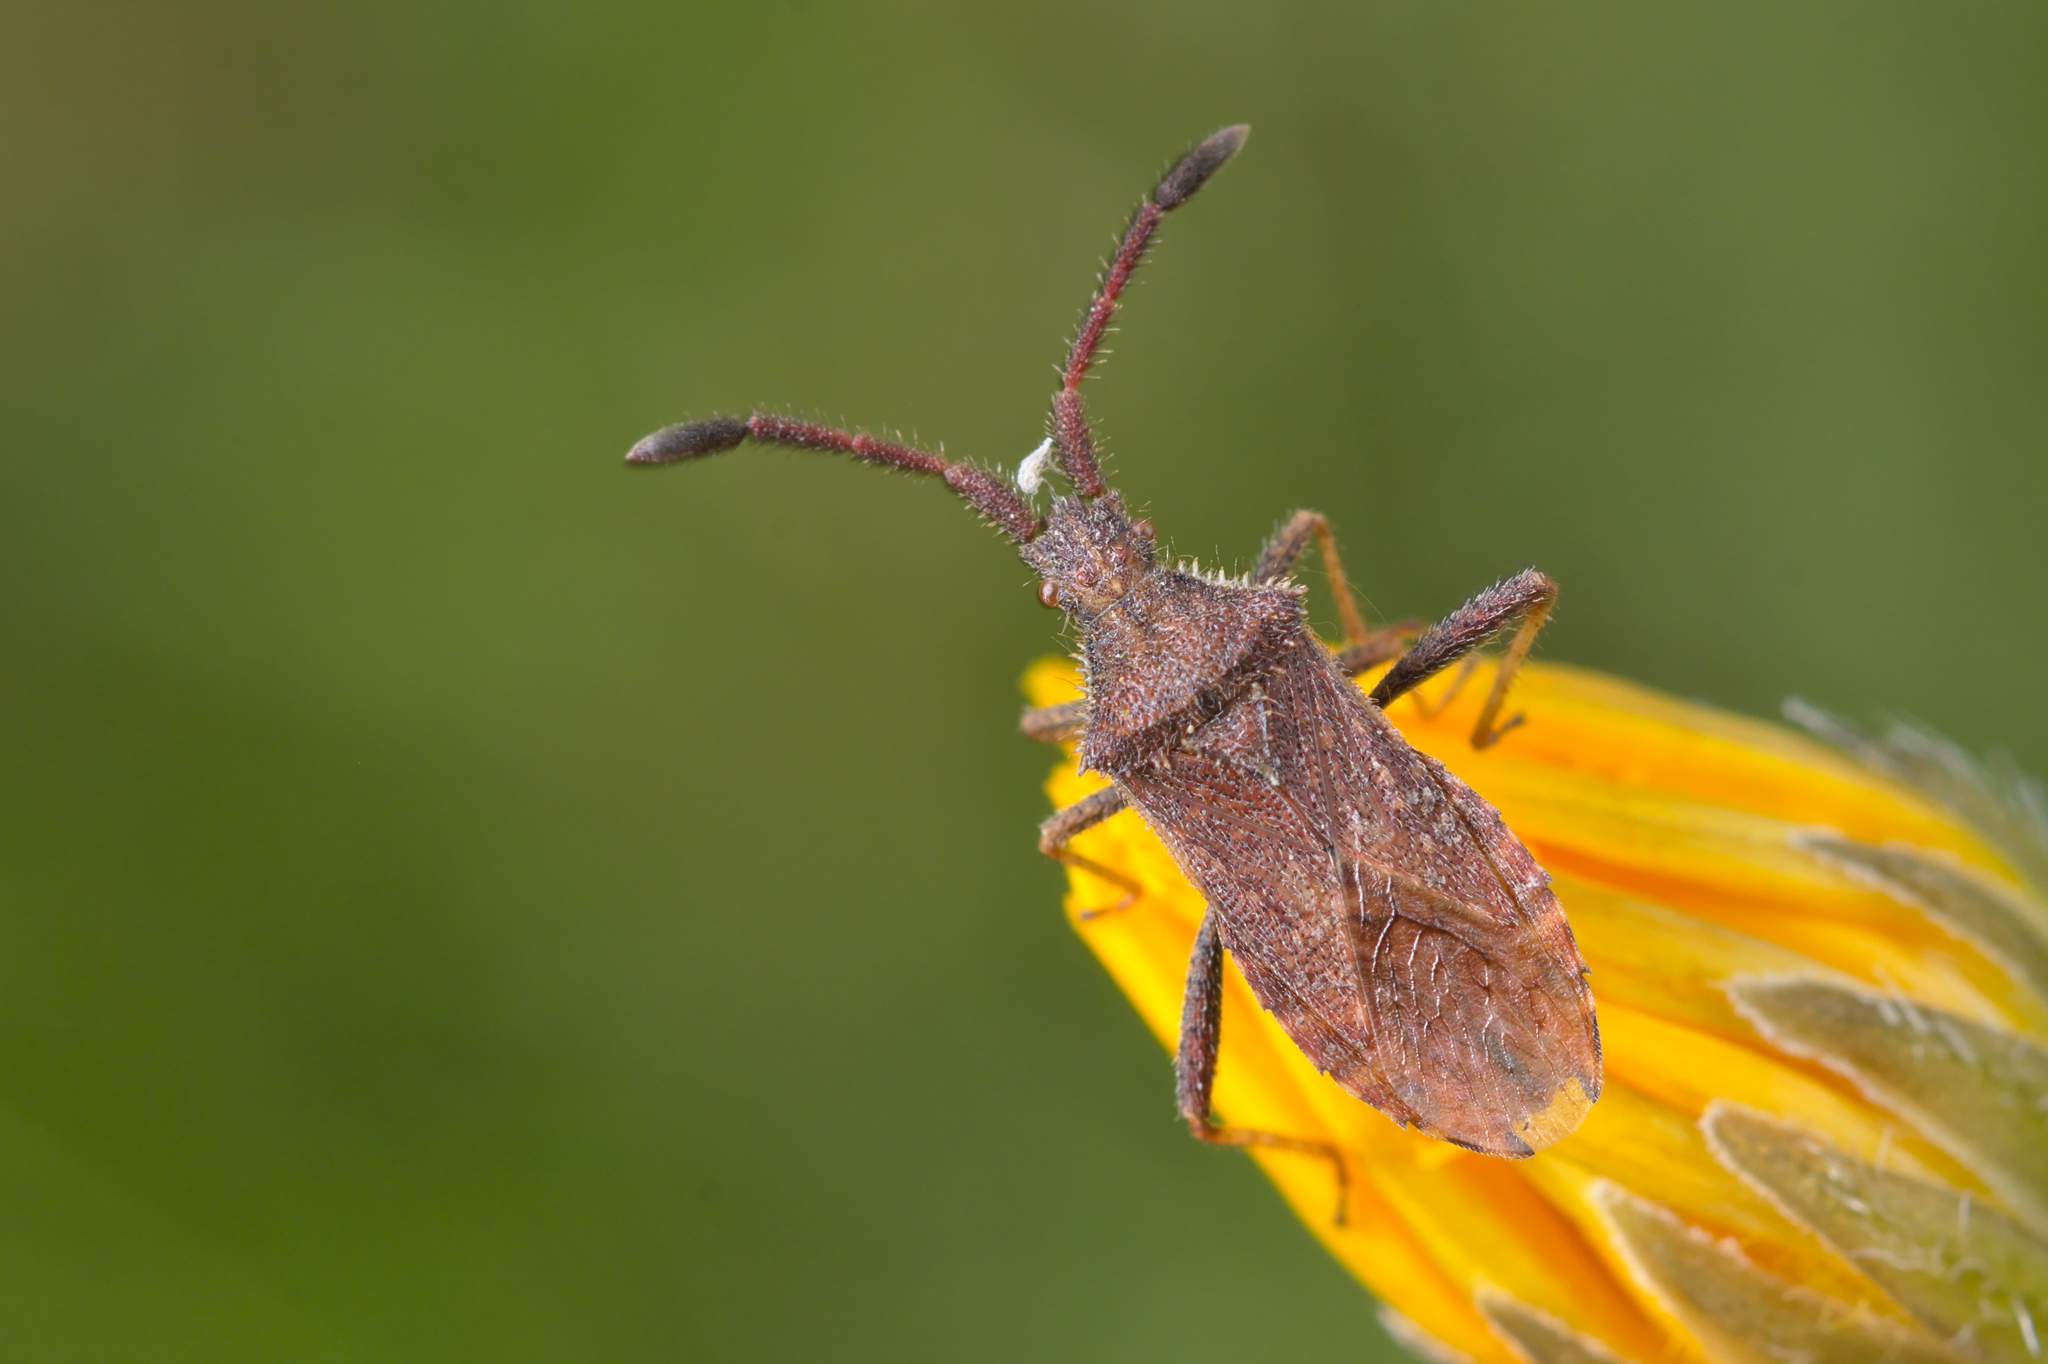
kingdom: Animalia
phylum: Arthropoda
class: Insecta
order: Hemiptera
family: Coreidae
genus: Coriomeris
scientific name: Coriomeris denticulatus
